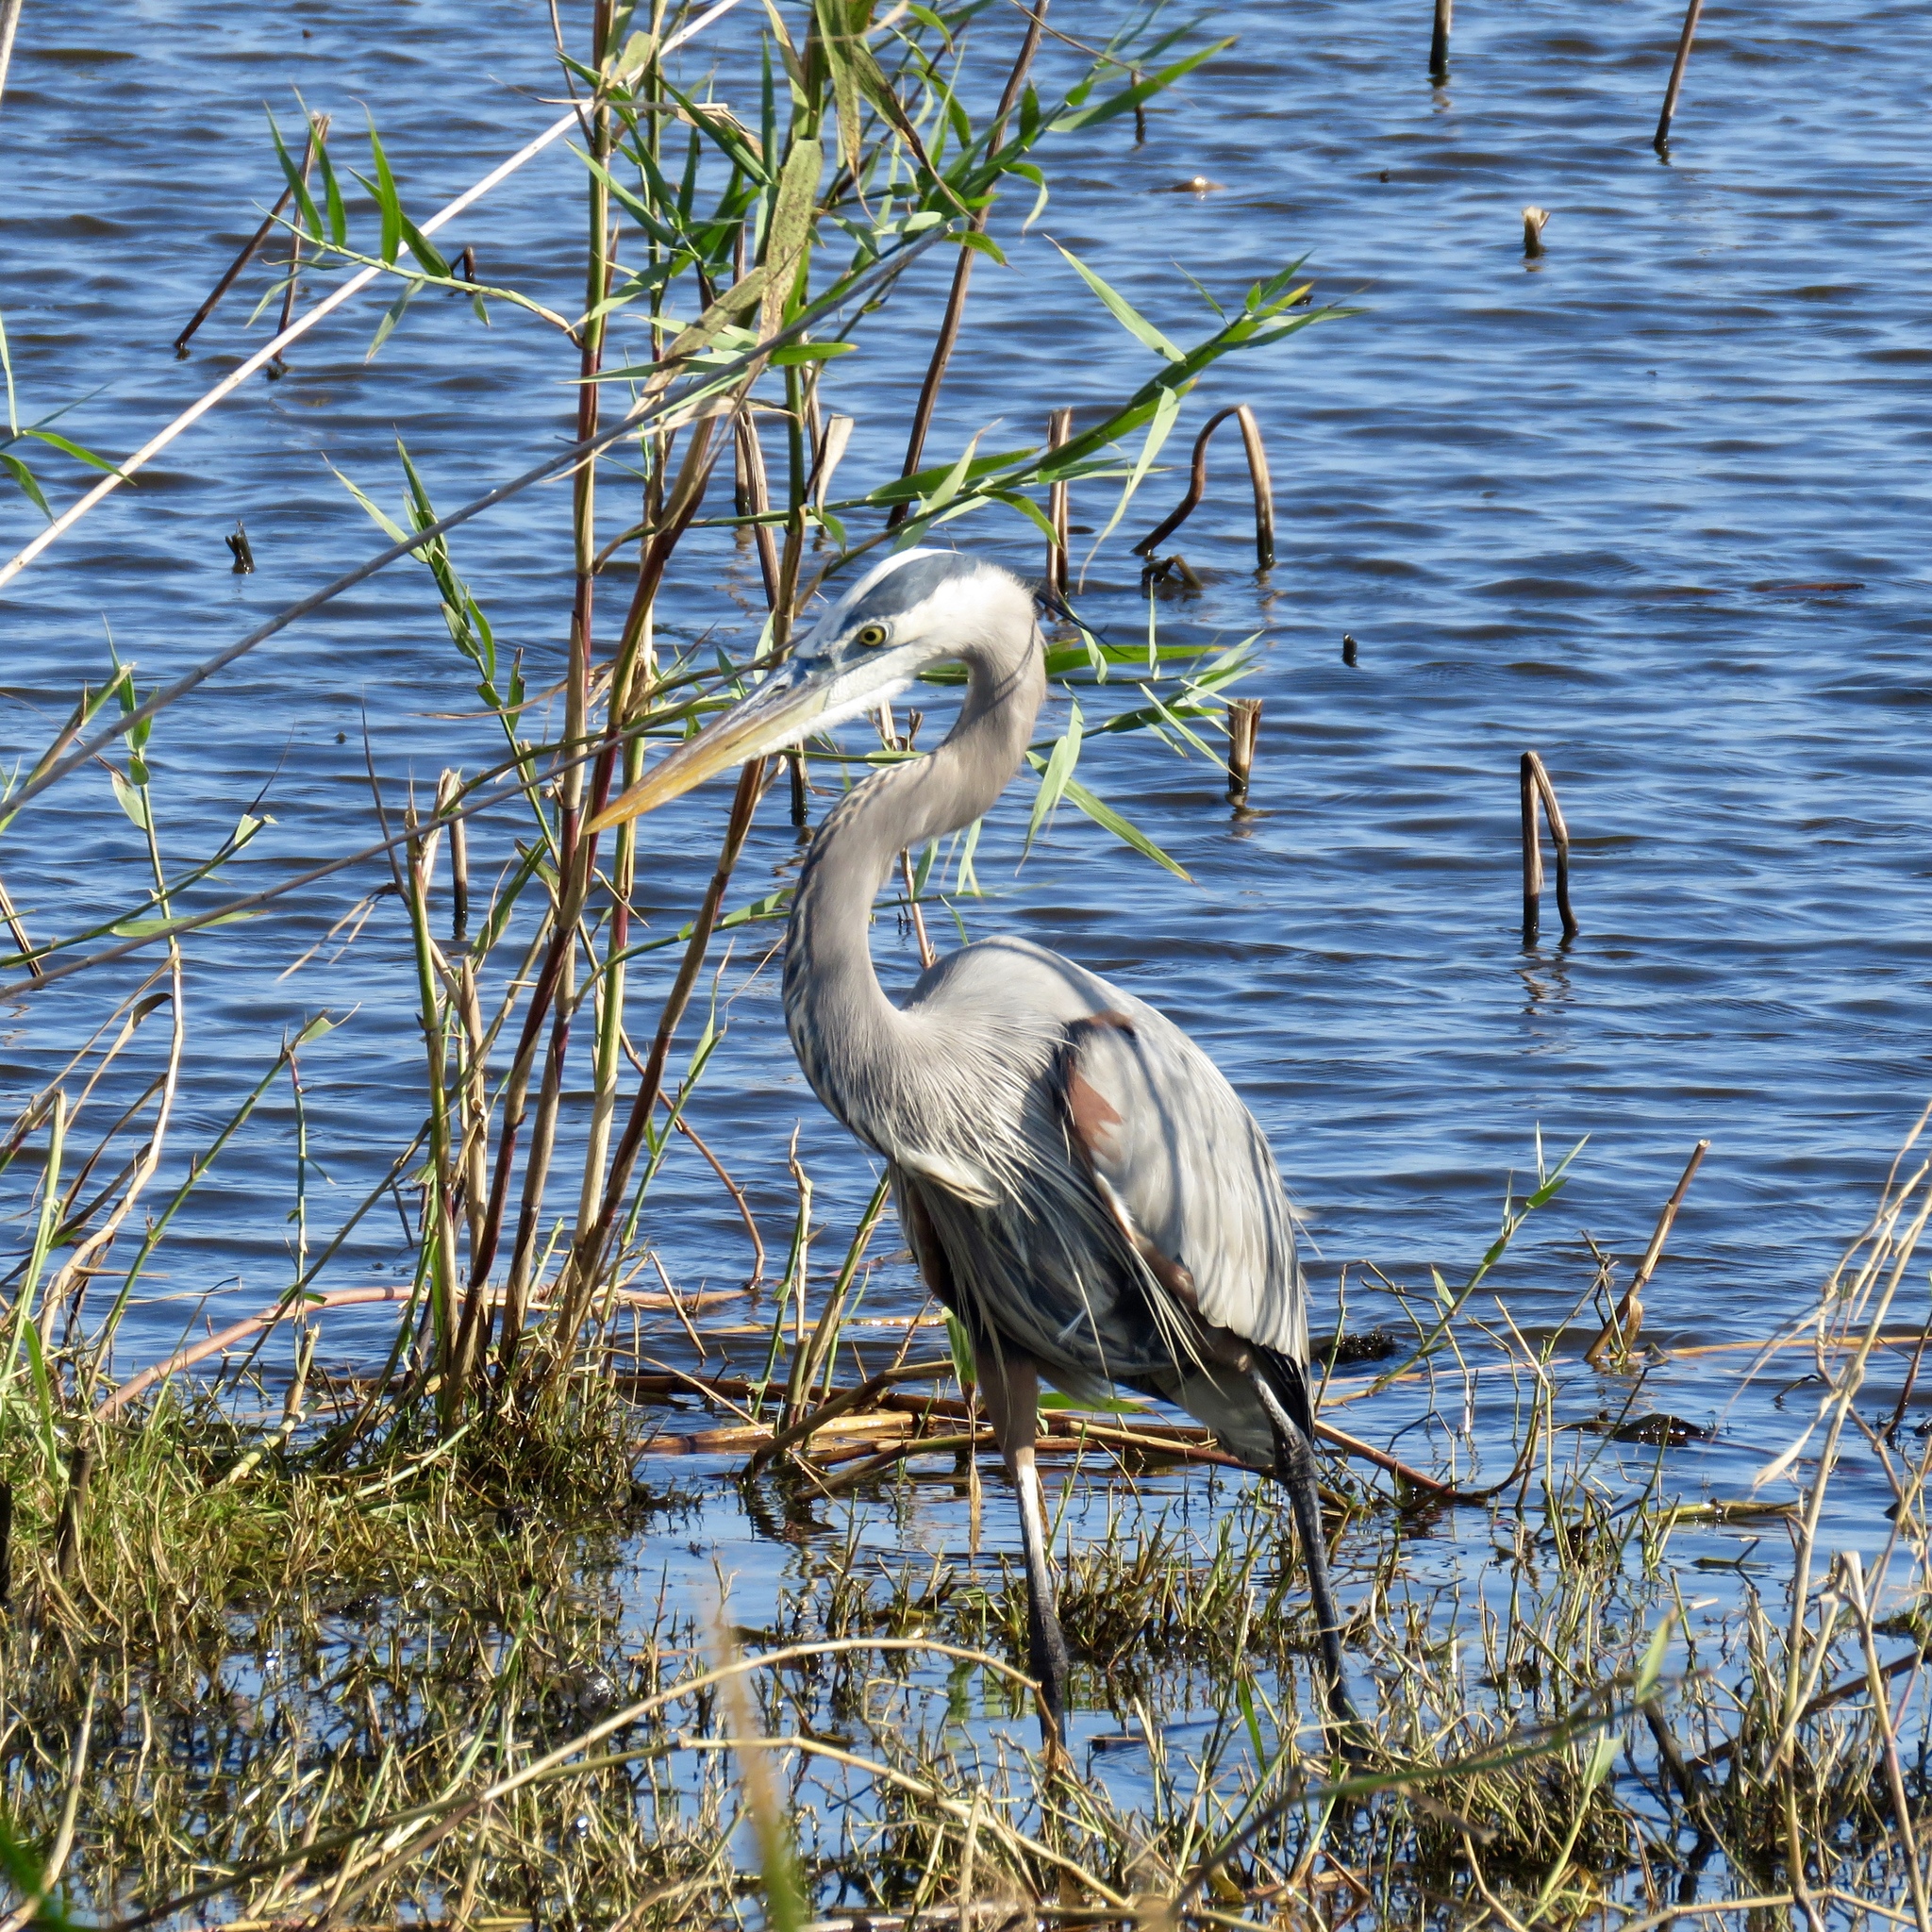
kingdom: Animalia
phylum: Chordata
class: Aves
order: Pelecaniformes
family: Ardeidae
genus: Ardea
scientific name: Ardea herodias
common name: Great blue heron
